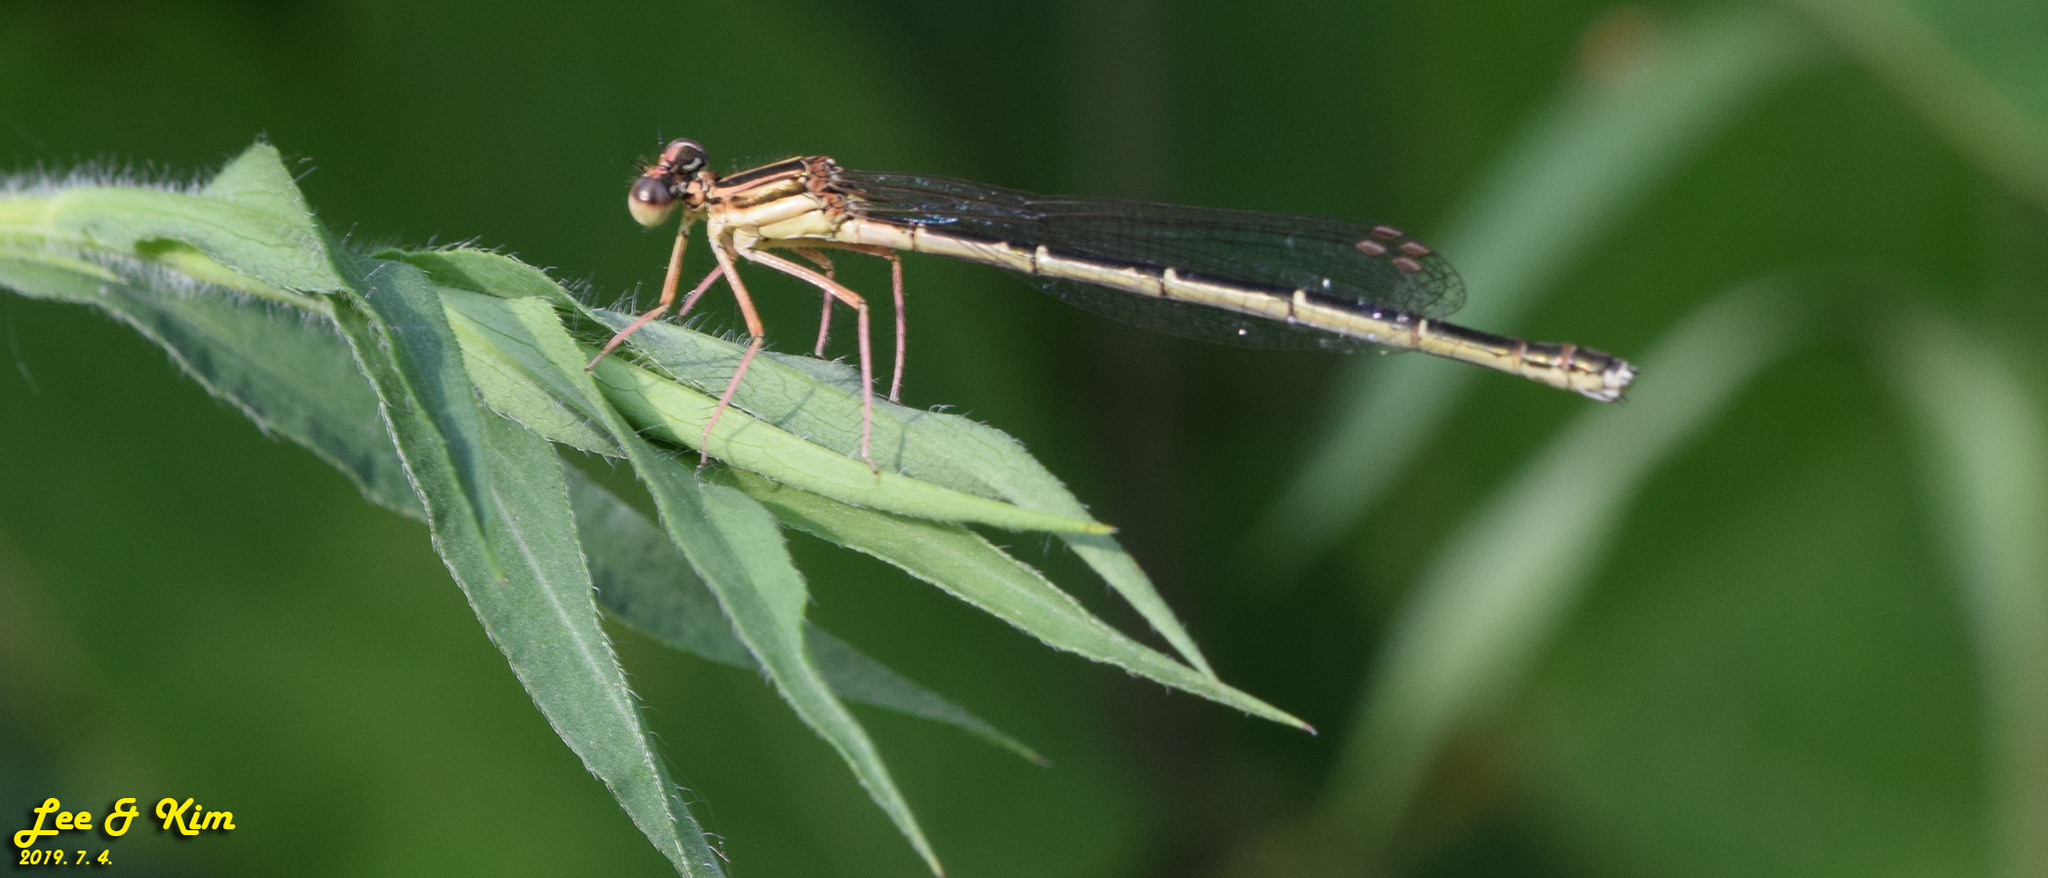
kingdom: Animalia
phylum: Arthropoda
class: Insecta
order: Odonata
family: Platycnemididae
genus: Platycnemis
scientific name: Platycnemis phyllopoda
